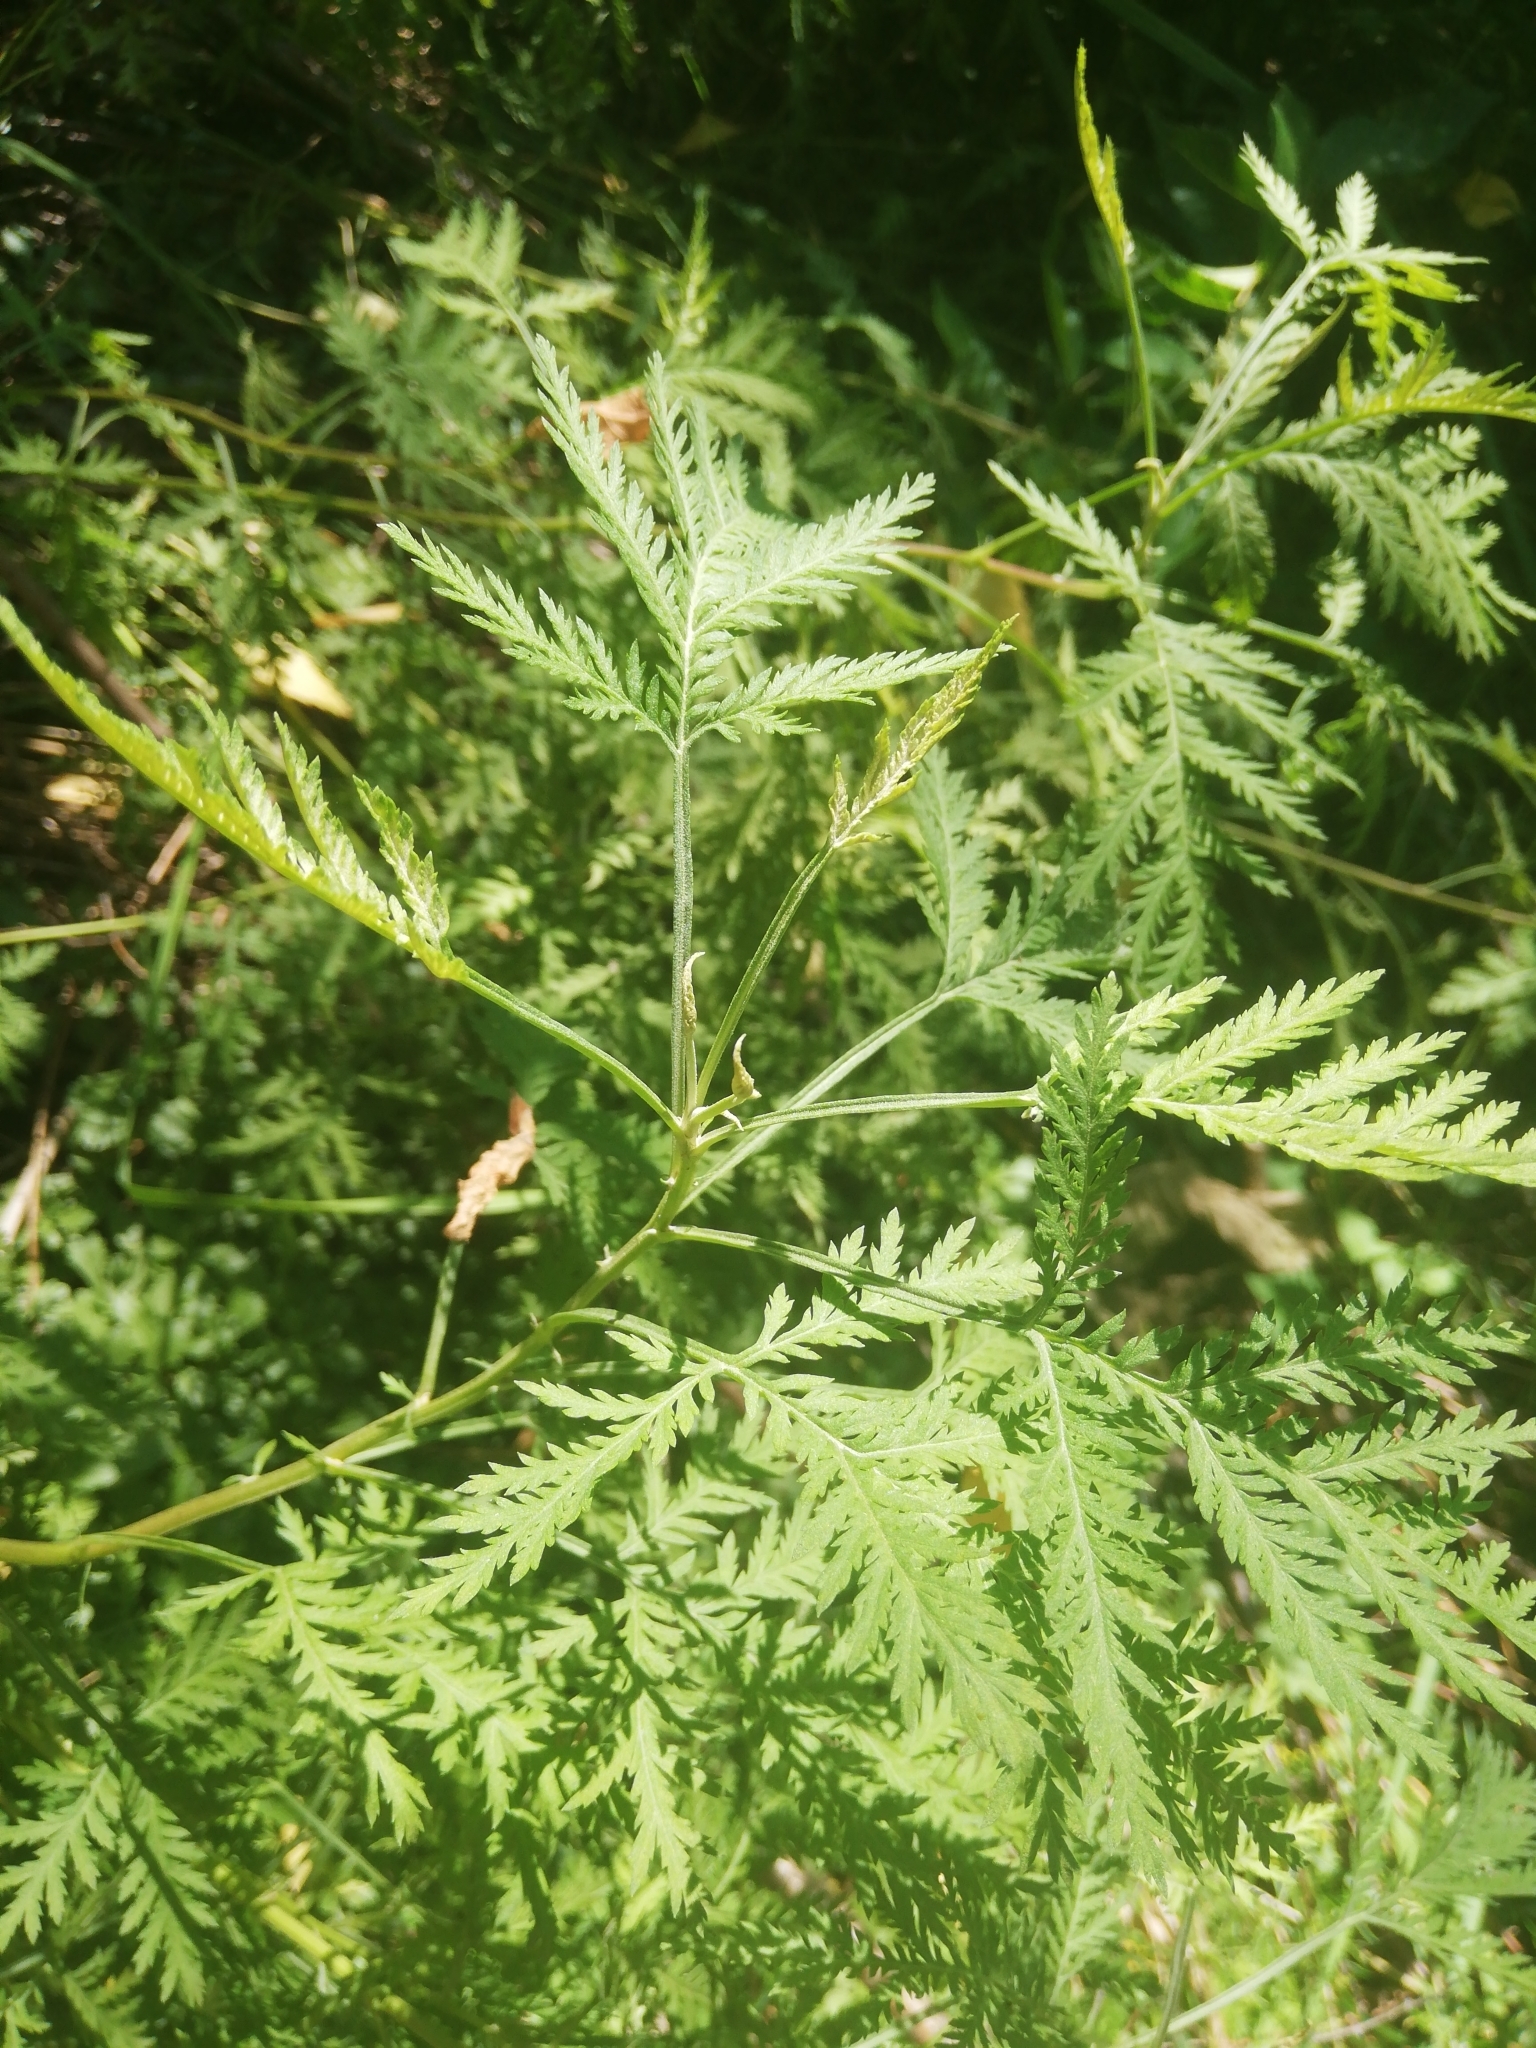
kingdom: Plantae
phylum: Tracheophyta
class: Magnoliopsida
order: Asterales
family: Asteraceae
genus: Artemisia
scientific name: Artemisia gmelinii
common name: Gmelin's wormwood
